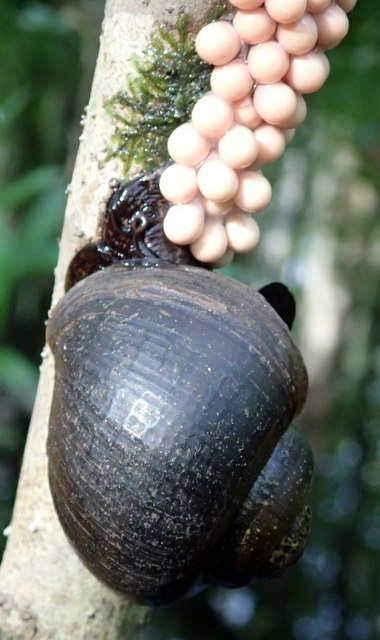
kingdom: Animalia
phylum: Mollusca
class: Gastropoda
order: Architaenioglossa
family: Ampullariidae
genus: Pomacea
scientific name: Pomacea paludosa
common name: Florida applesnail
